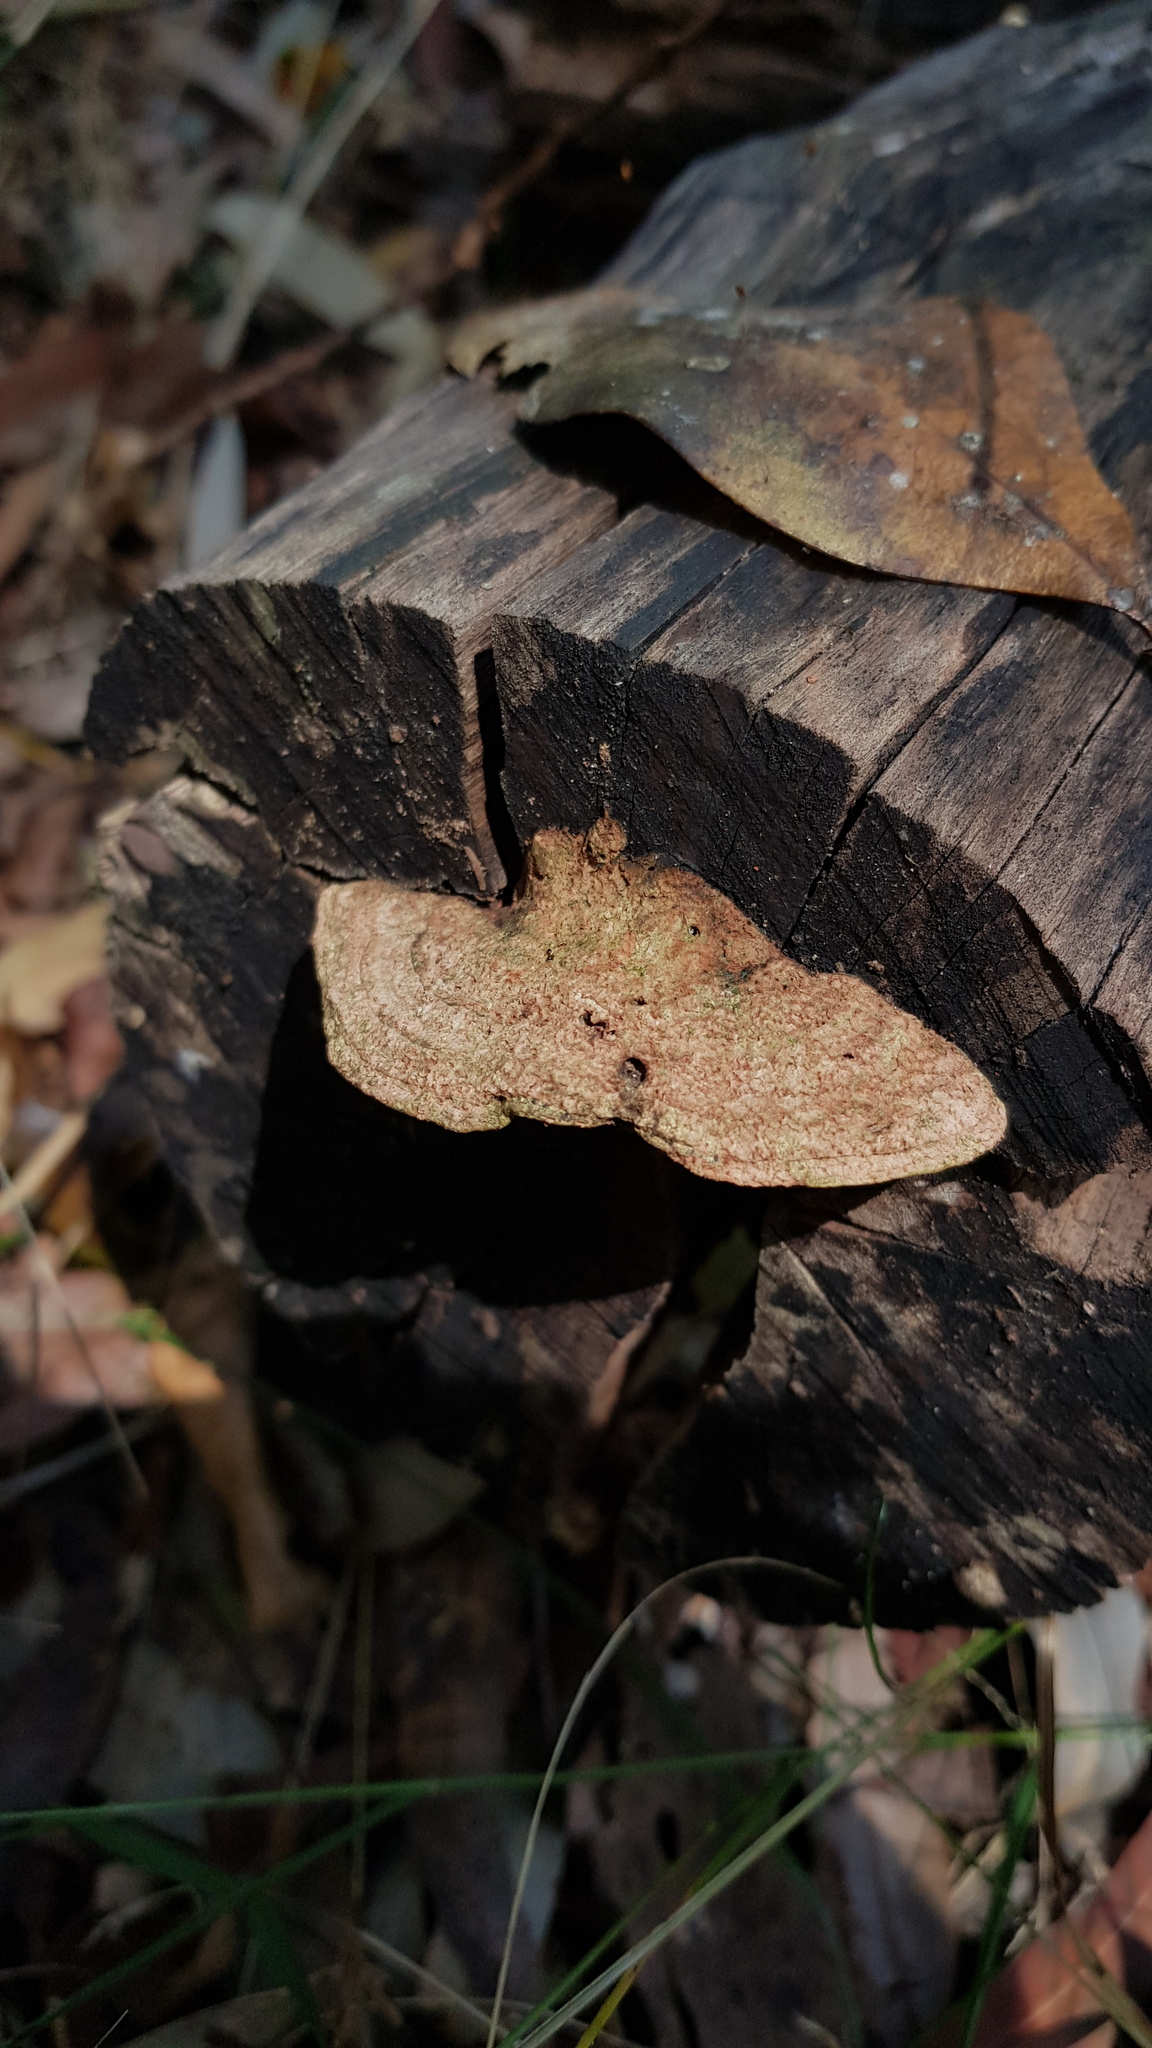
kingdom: Fungi
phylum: Basidiomycota
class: Agaricomycetes
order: Polyporales
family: Polyporaceae
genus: Trametes
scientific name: Trametes coccinea
